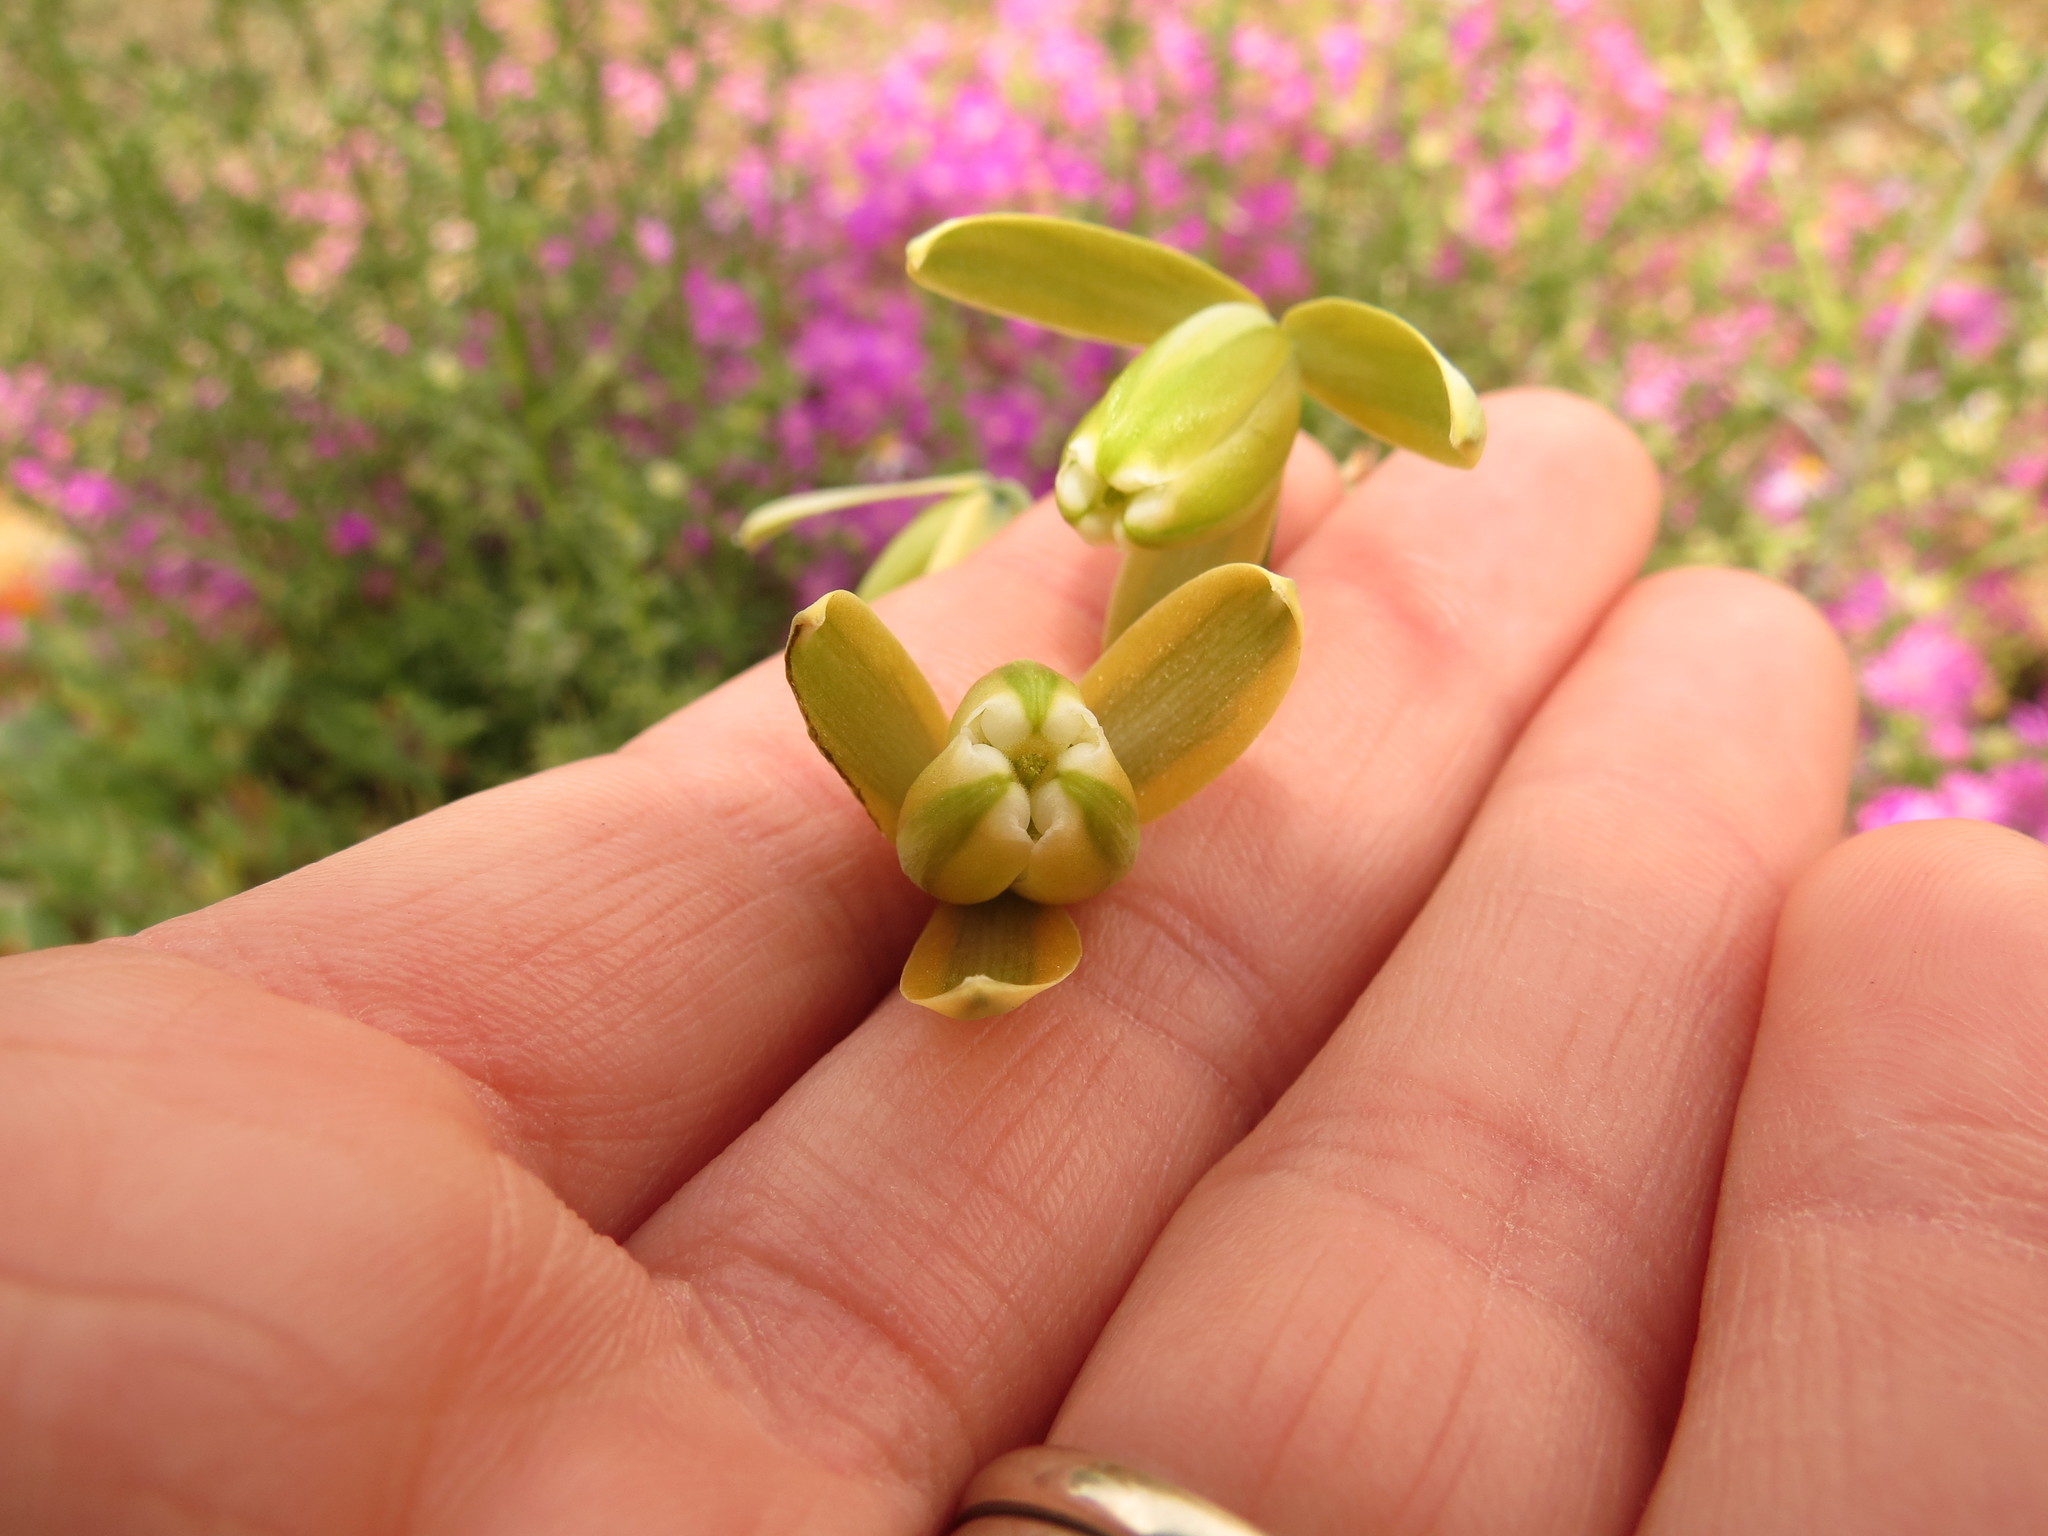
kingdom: Plantae
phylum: Tracheophyta
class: Liliopsida
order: Asparagales
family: Asparagaceae
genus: Albuca
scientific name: Albuca cooperi
